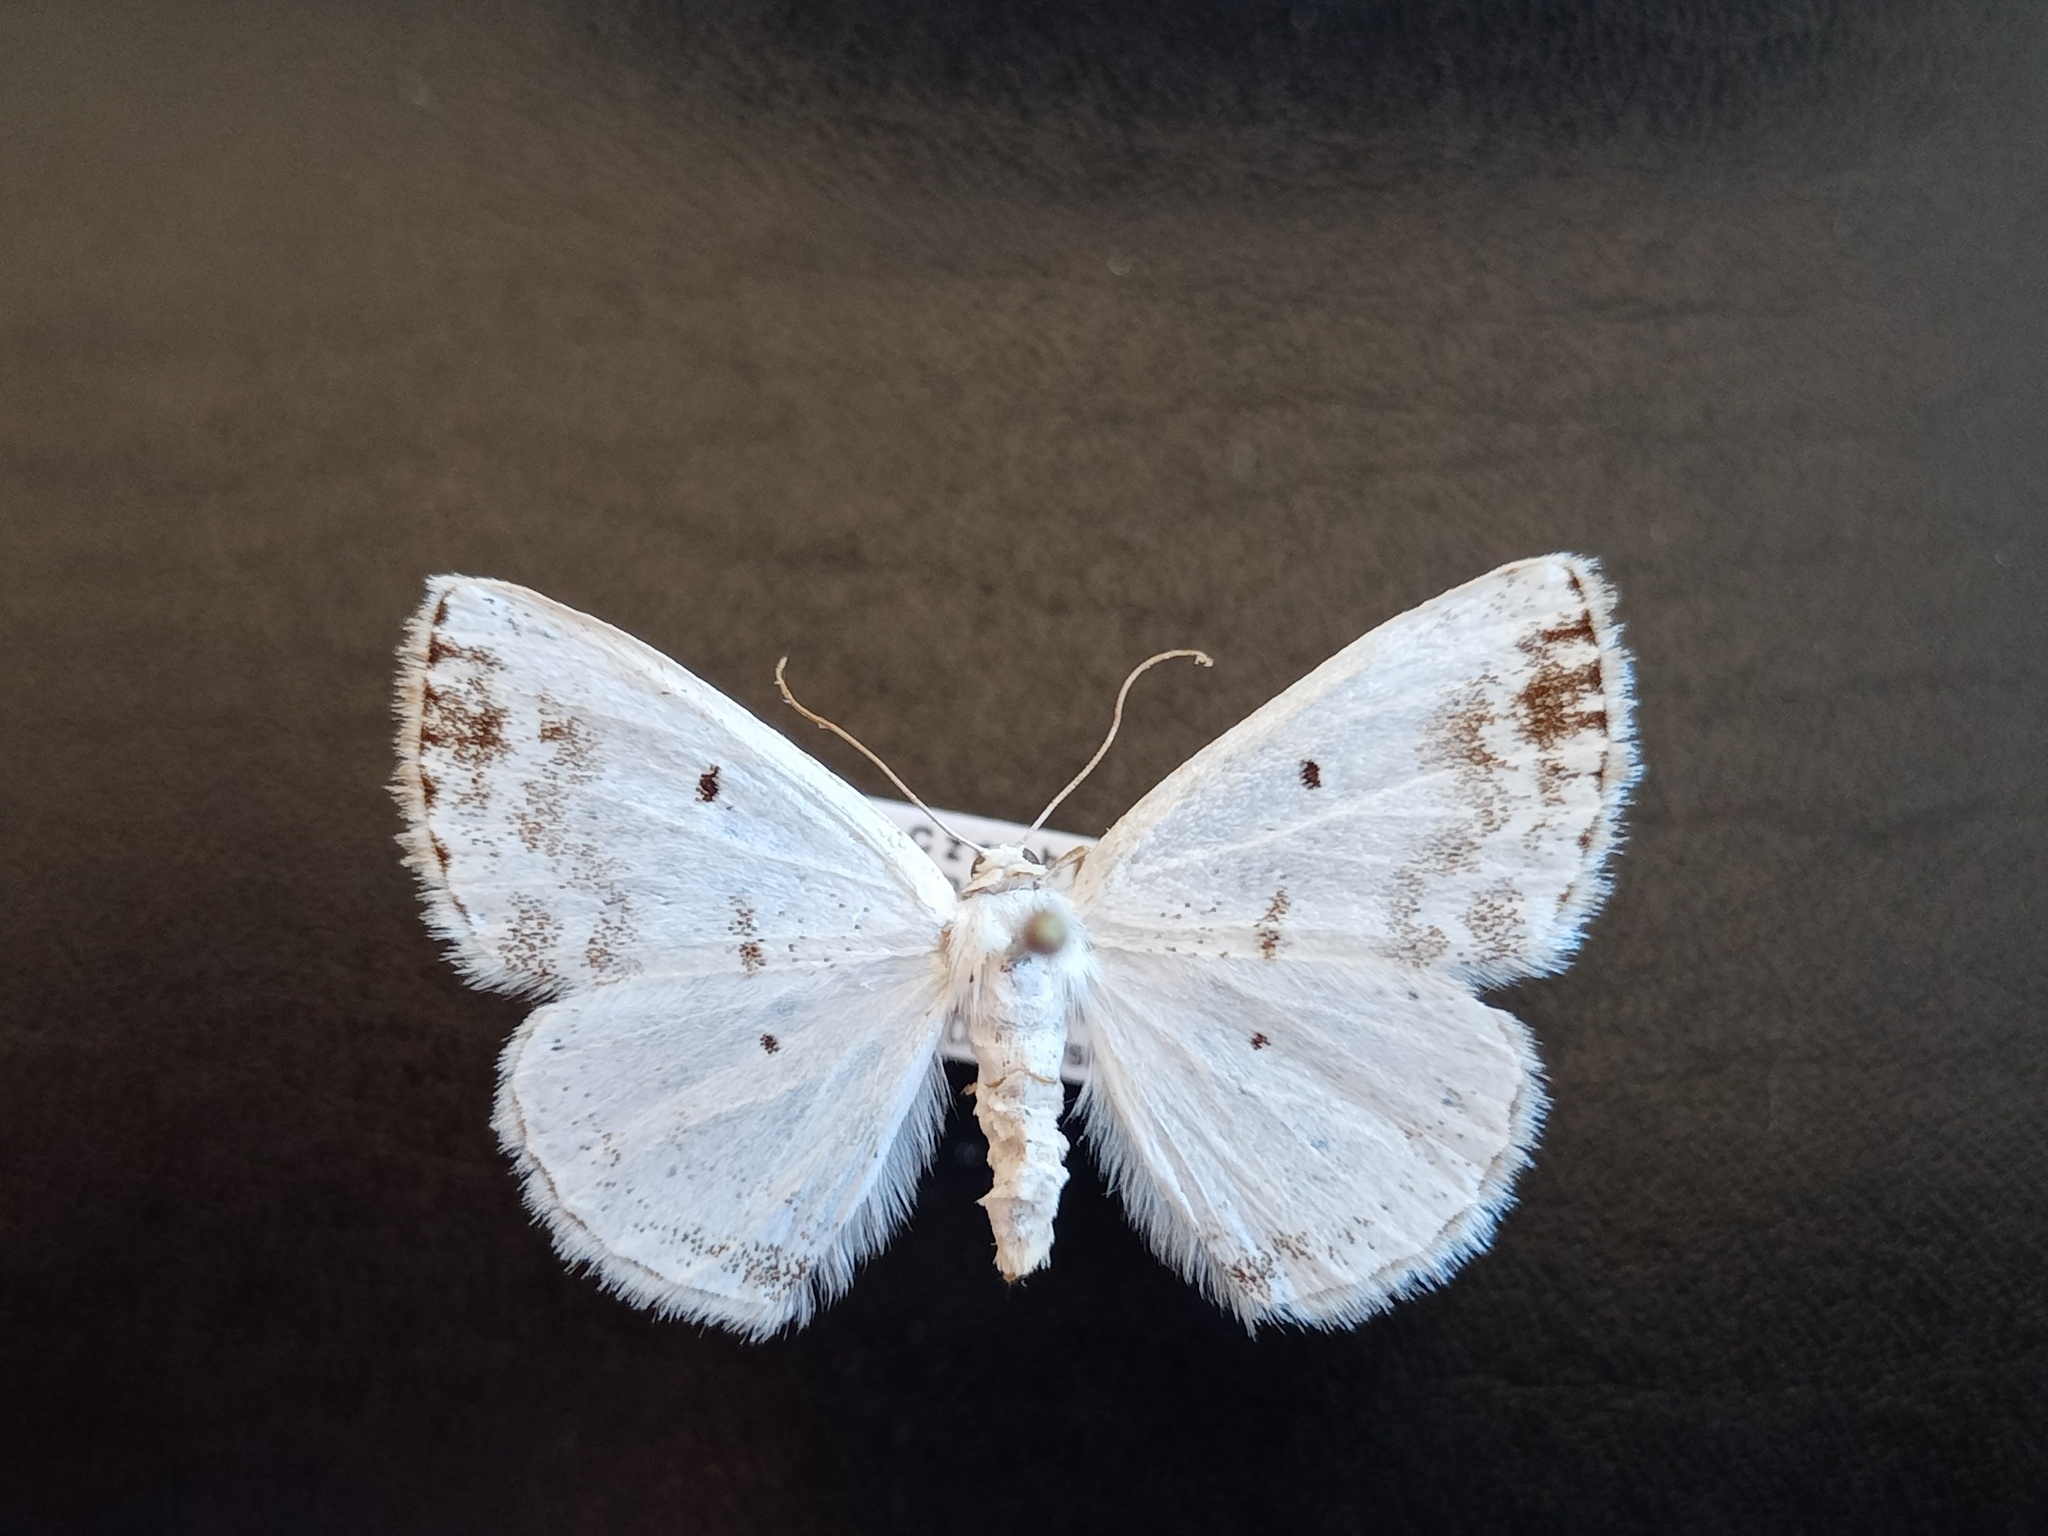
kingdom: Animalia
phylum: Arthropoda
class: Insecta
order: Lepidoptera
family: Geometridae
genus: Lomographa
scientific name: Lomographa temerata
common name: Clouded silver
